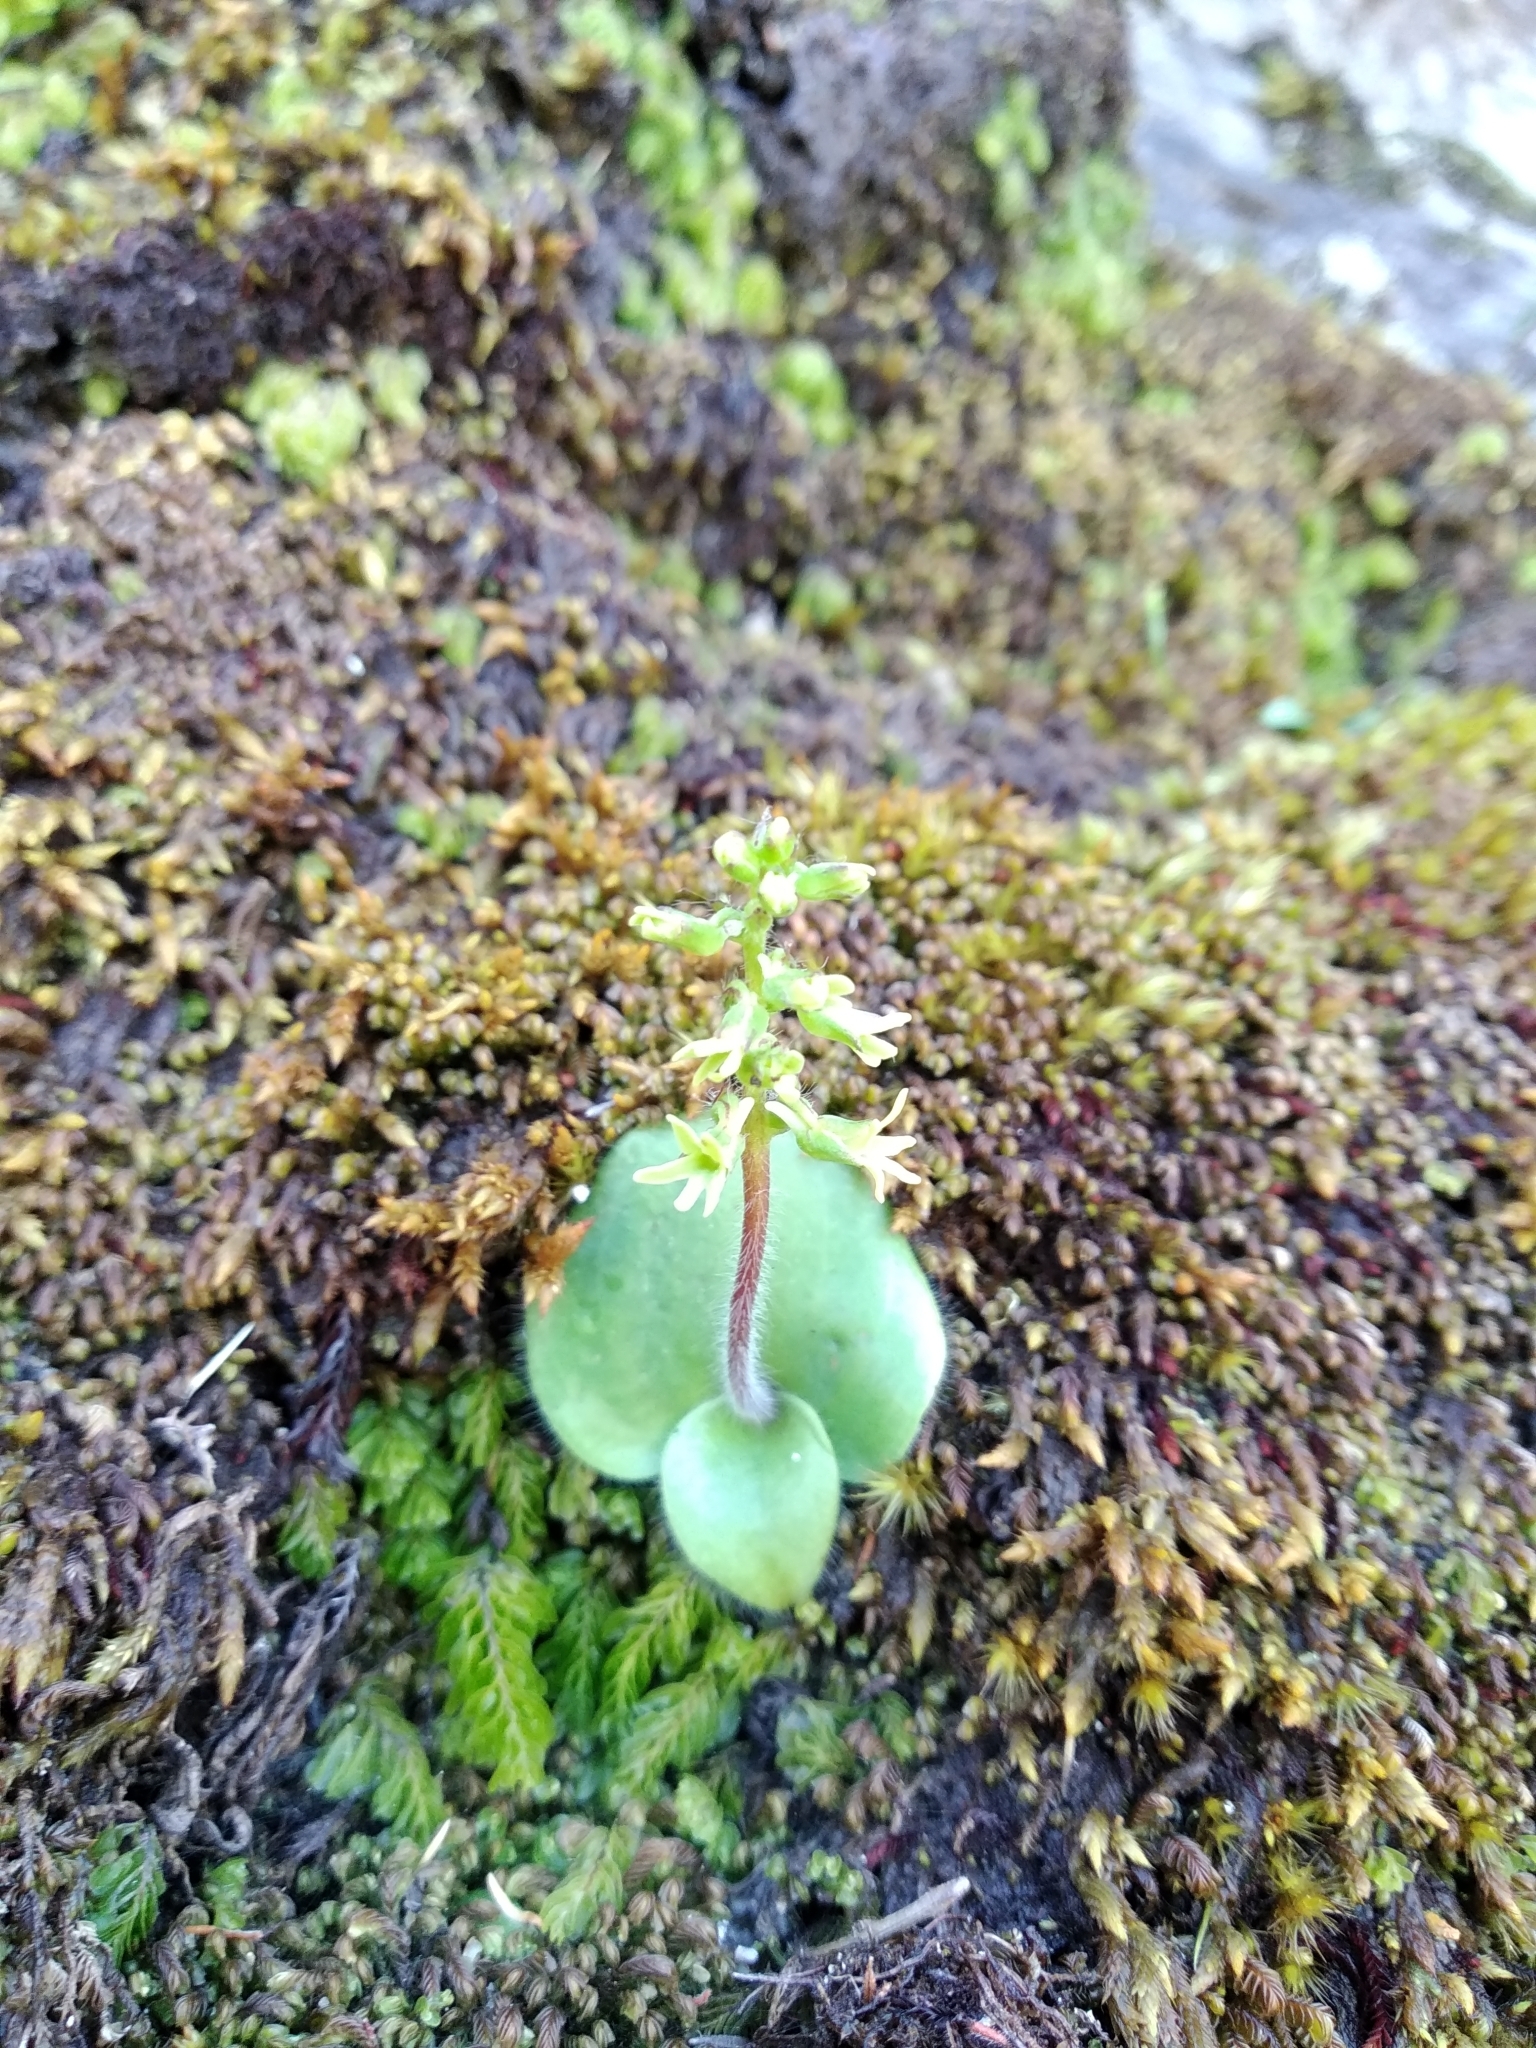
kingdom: Plantae
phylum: Tracheophyta
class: Liliopsida
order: Asparagales
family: Orchidaceae
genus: Holothrix
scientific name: Holothrix condensata
